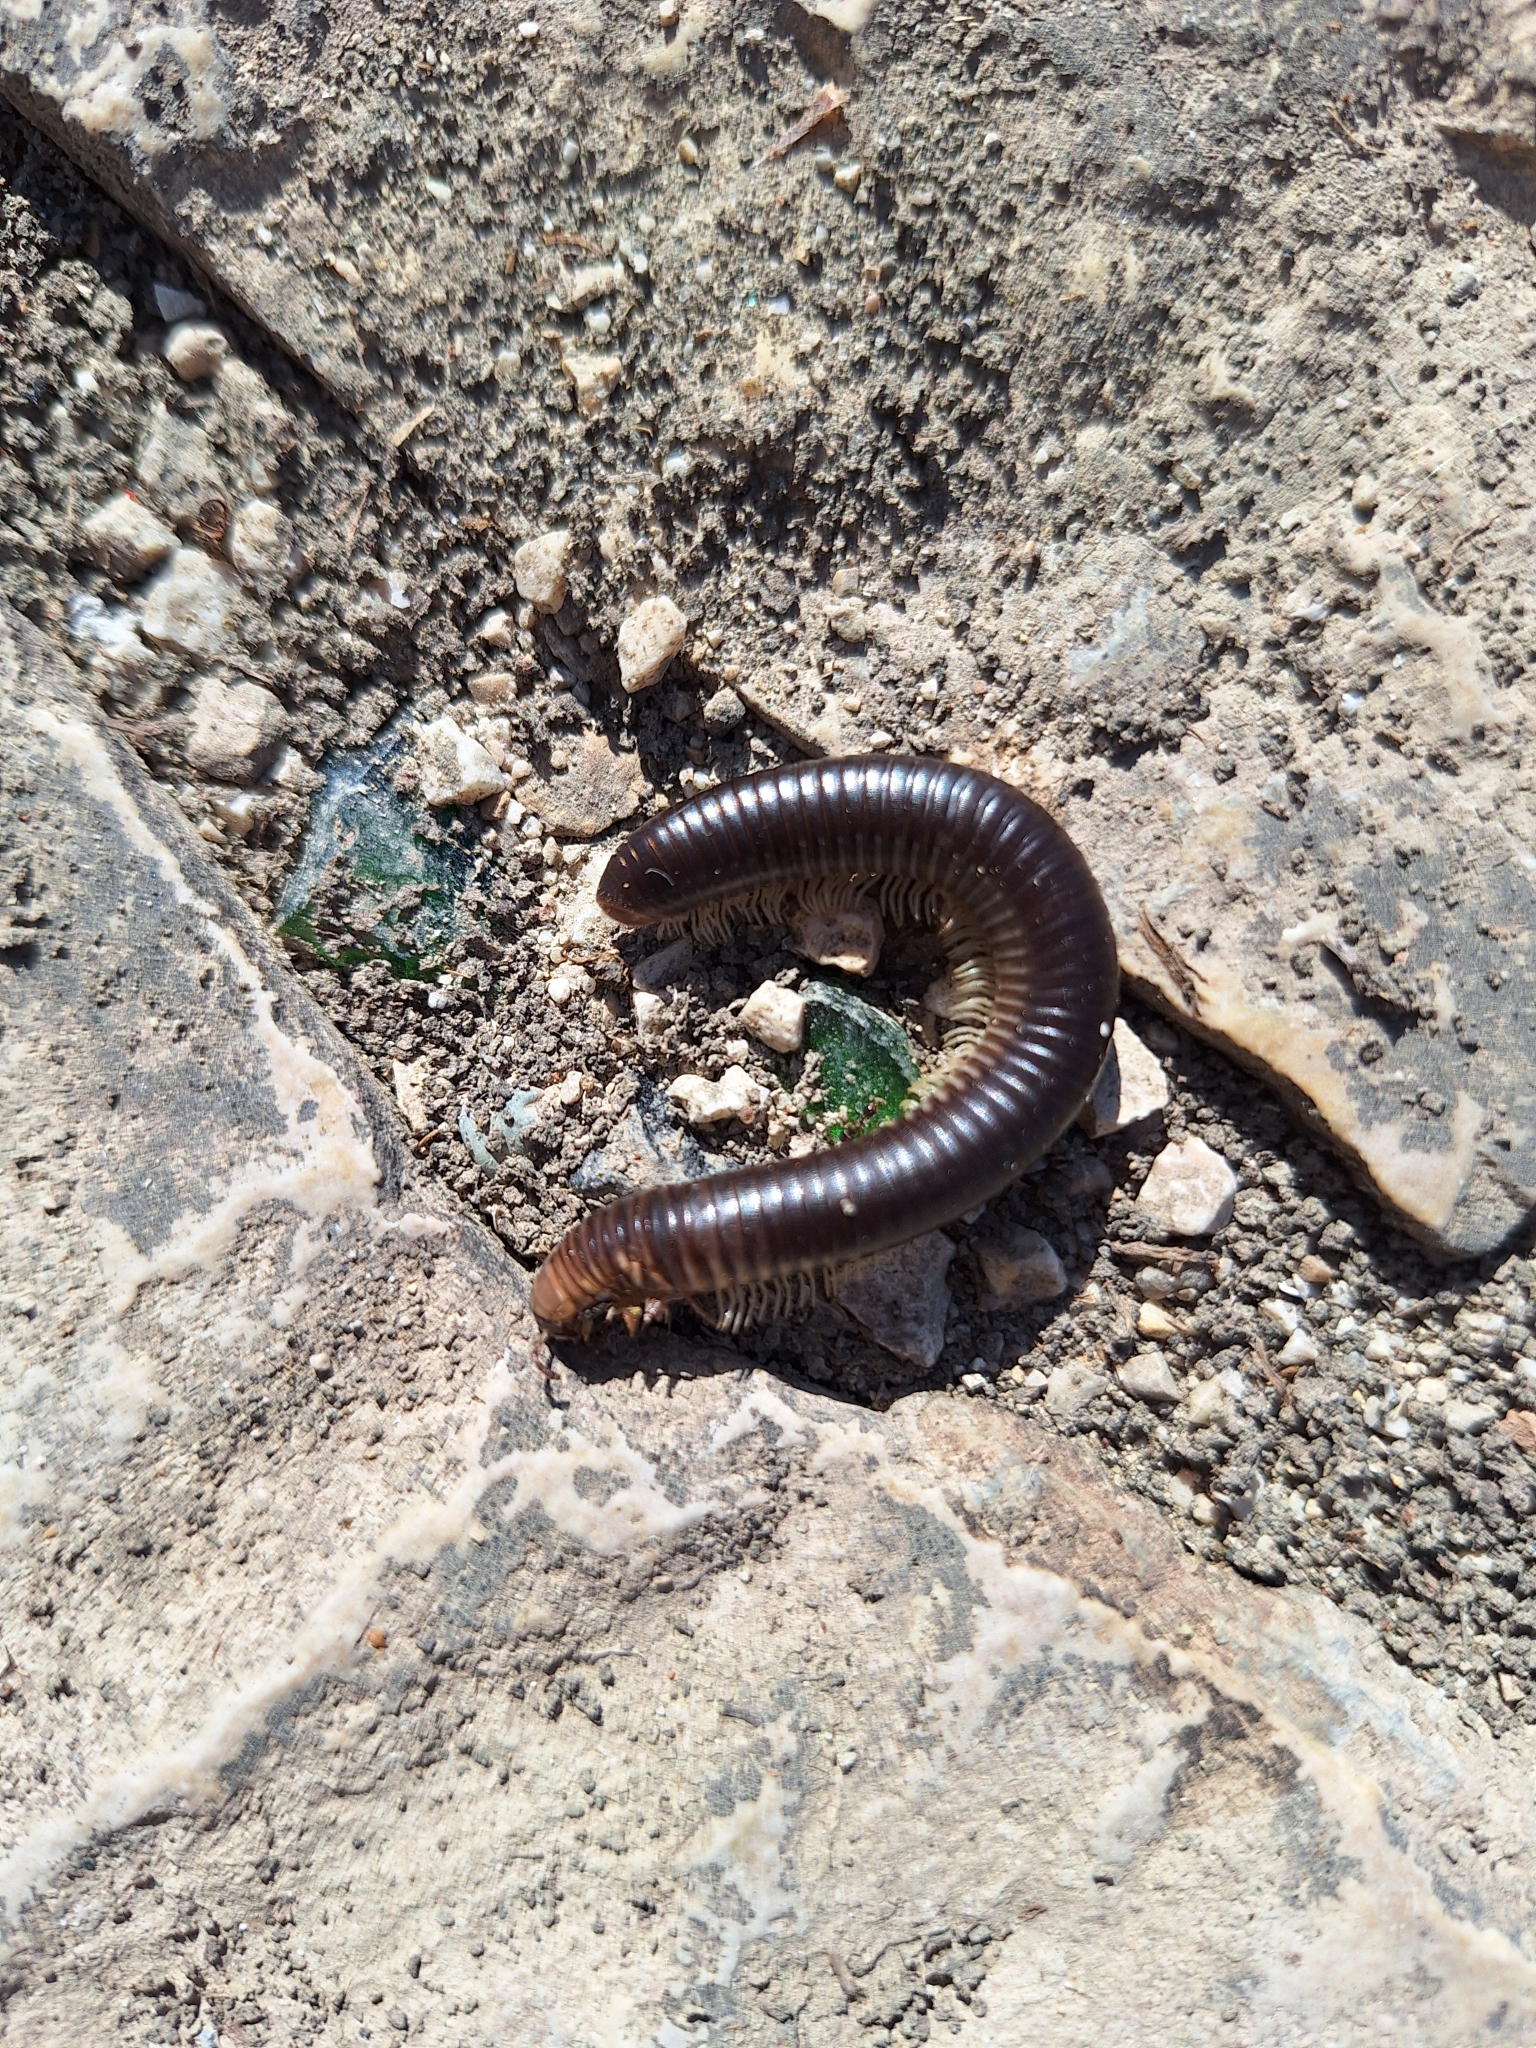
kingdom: Animalia
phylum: Arthropoda
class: Diplopoda
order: Julida
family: Julidae
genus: Pachyiulus
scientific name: Pachyiulus flavipes
